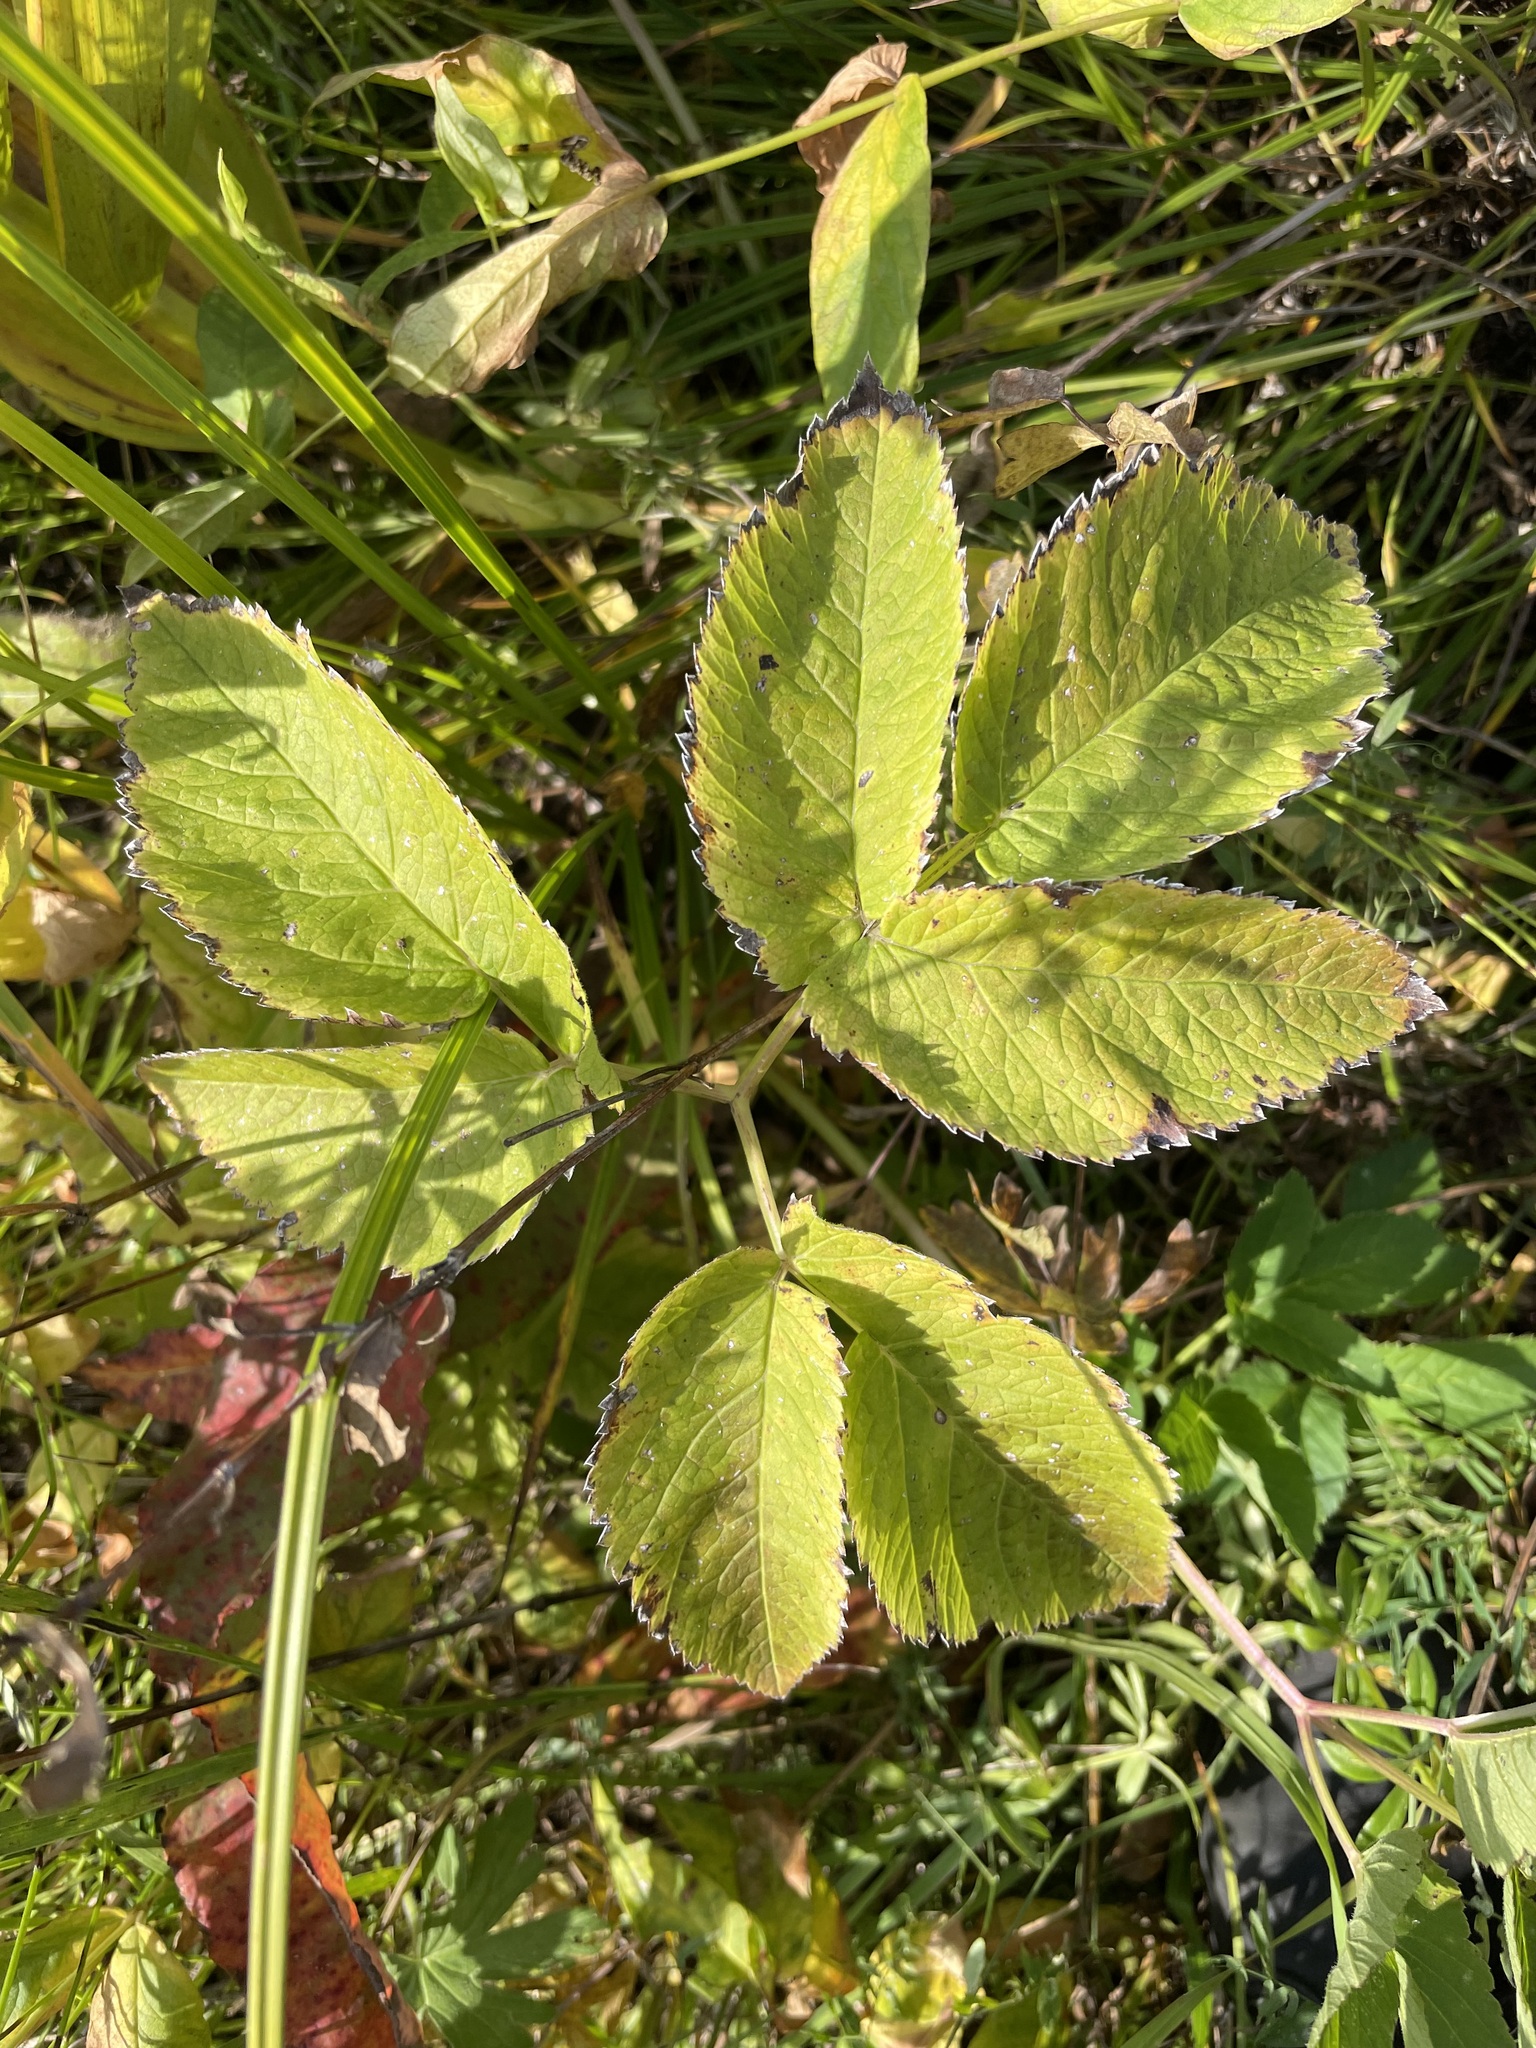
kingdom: Plantae
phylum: Tracheophyta
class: Magnoliopsida
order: Apiales
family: Apiaceae
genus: Aegopodium
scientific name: Aegopodium podagraria
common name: Ground-elder
